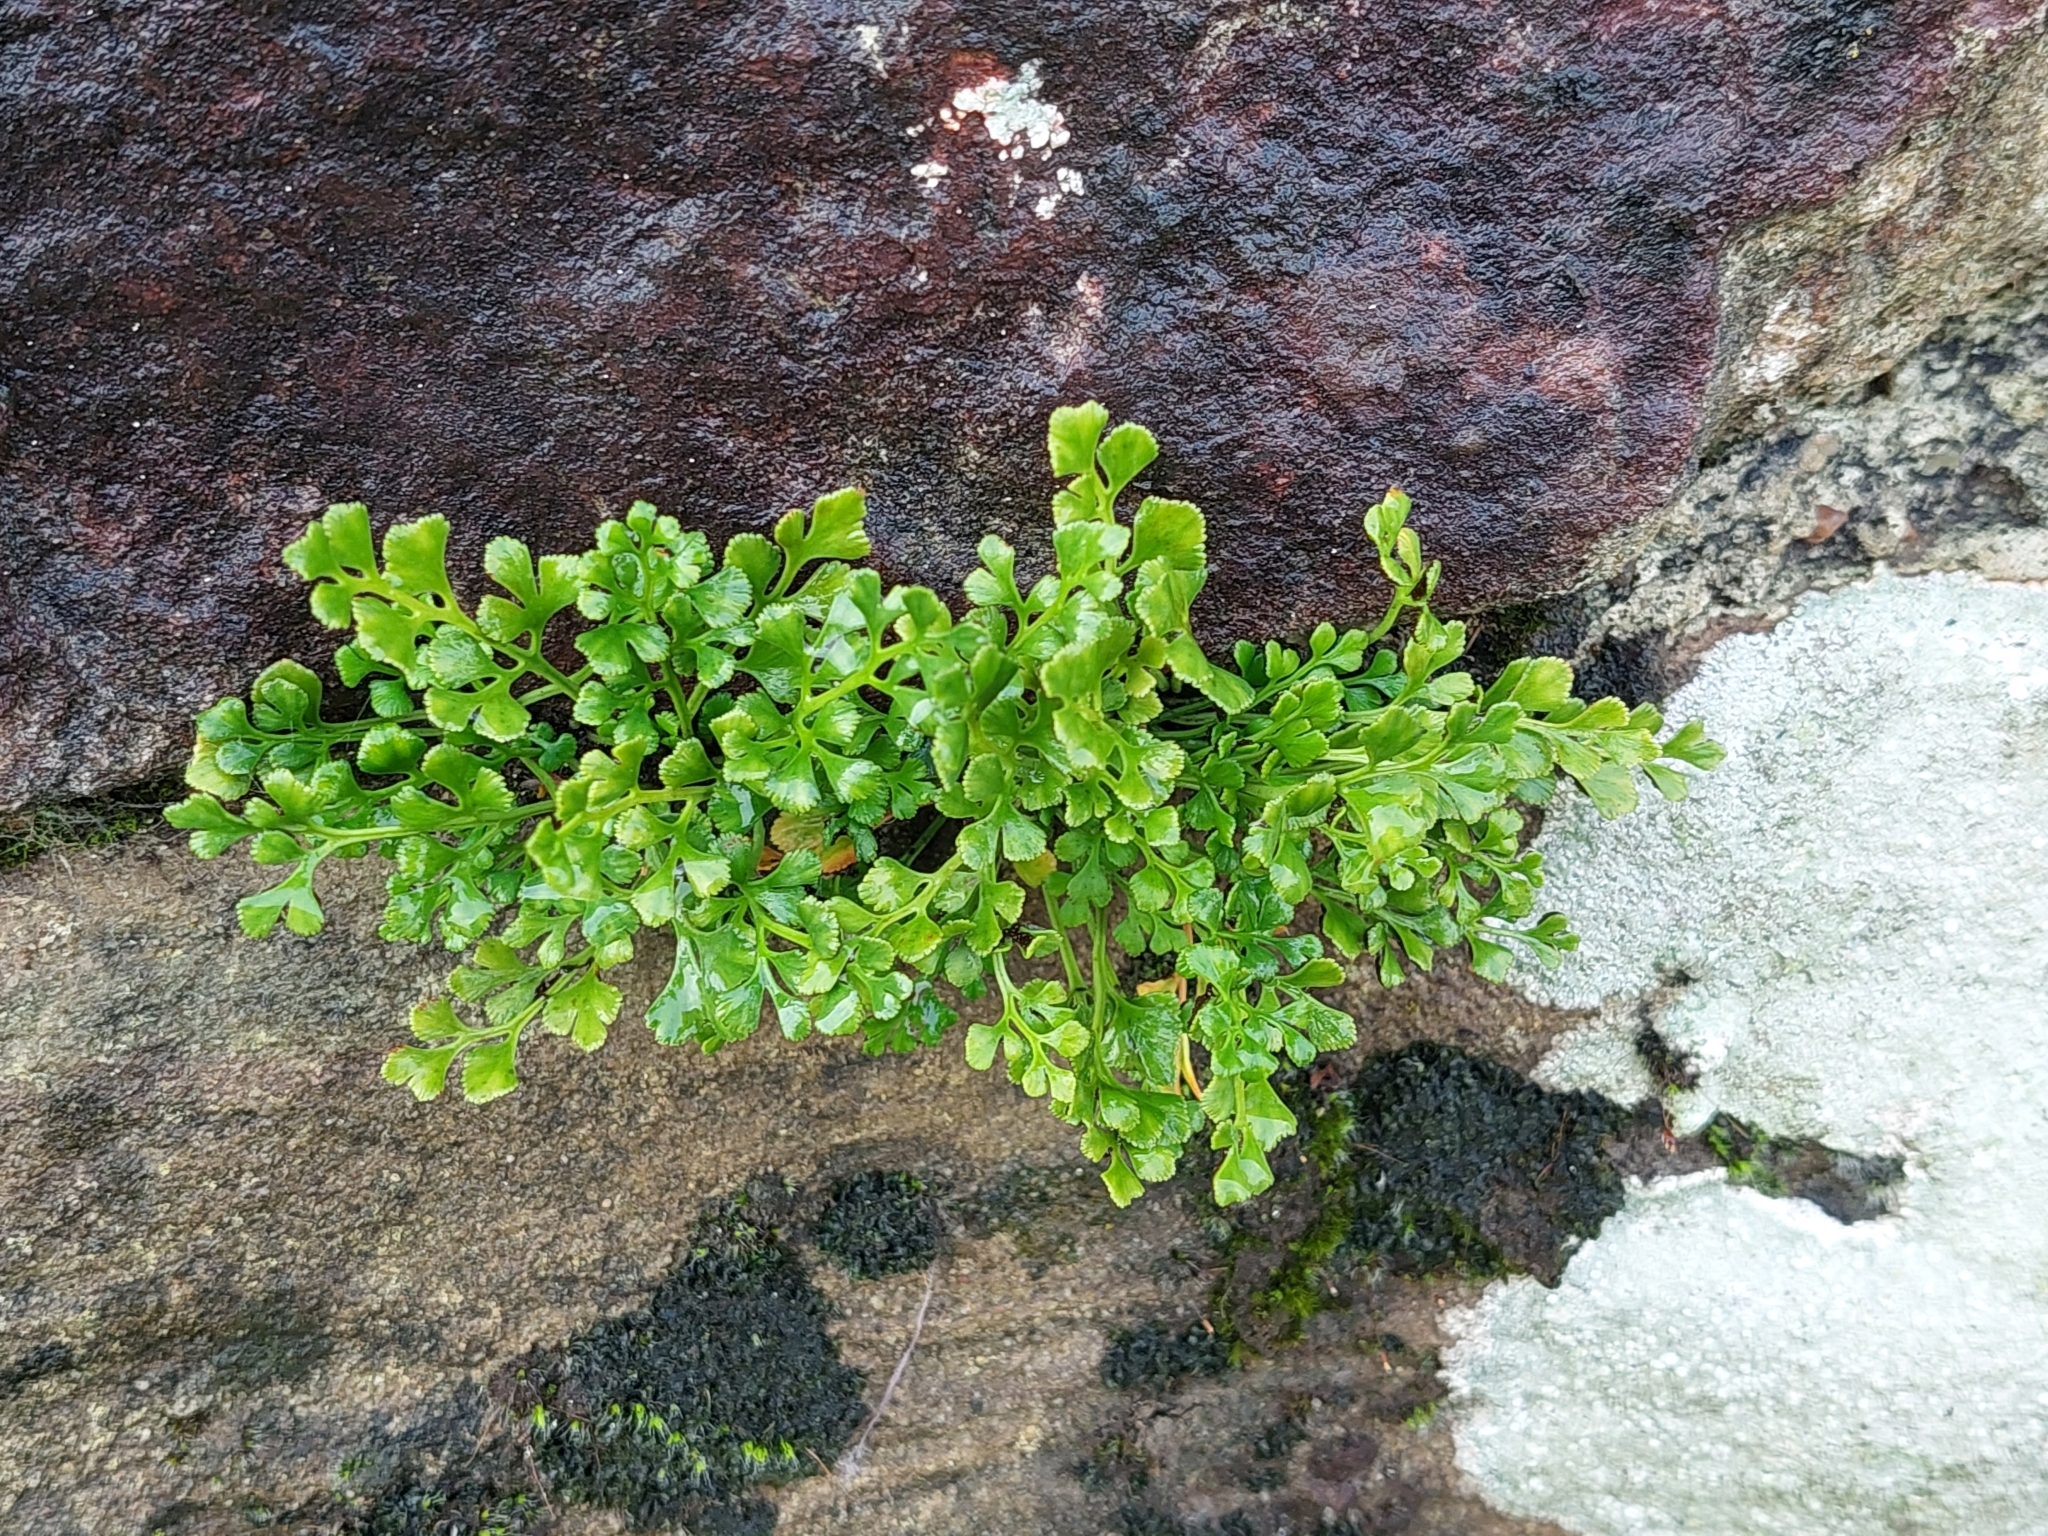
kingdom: Plantae
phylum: Tracheophyta
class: Polypodiopsida
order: Polypodiales
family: Aspleniaceae
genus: Asplenium
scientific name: Asplenium ruta-muraria
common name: Wall-rue
